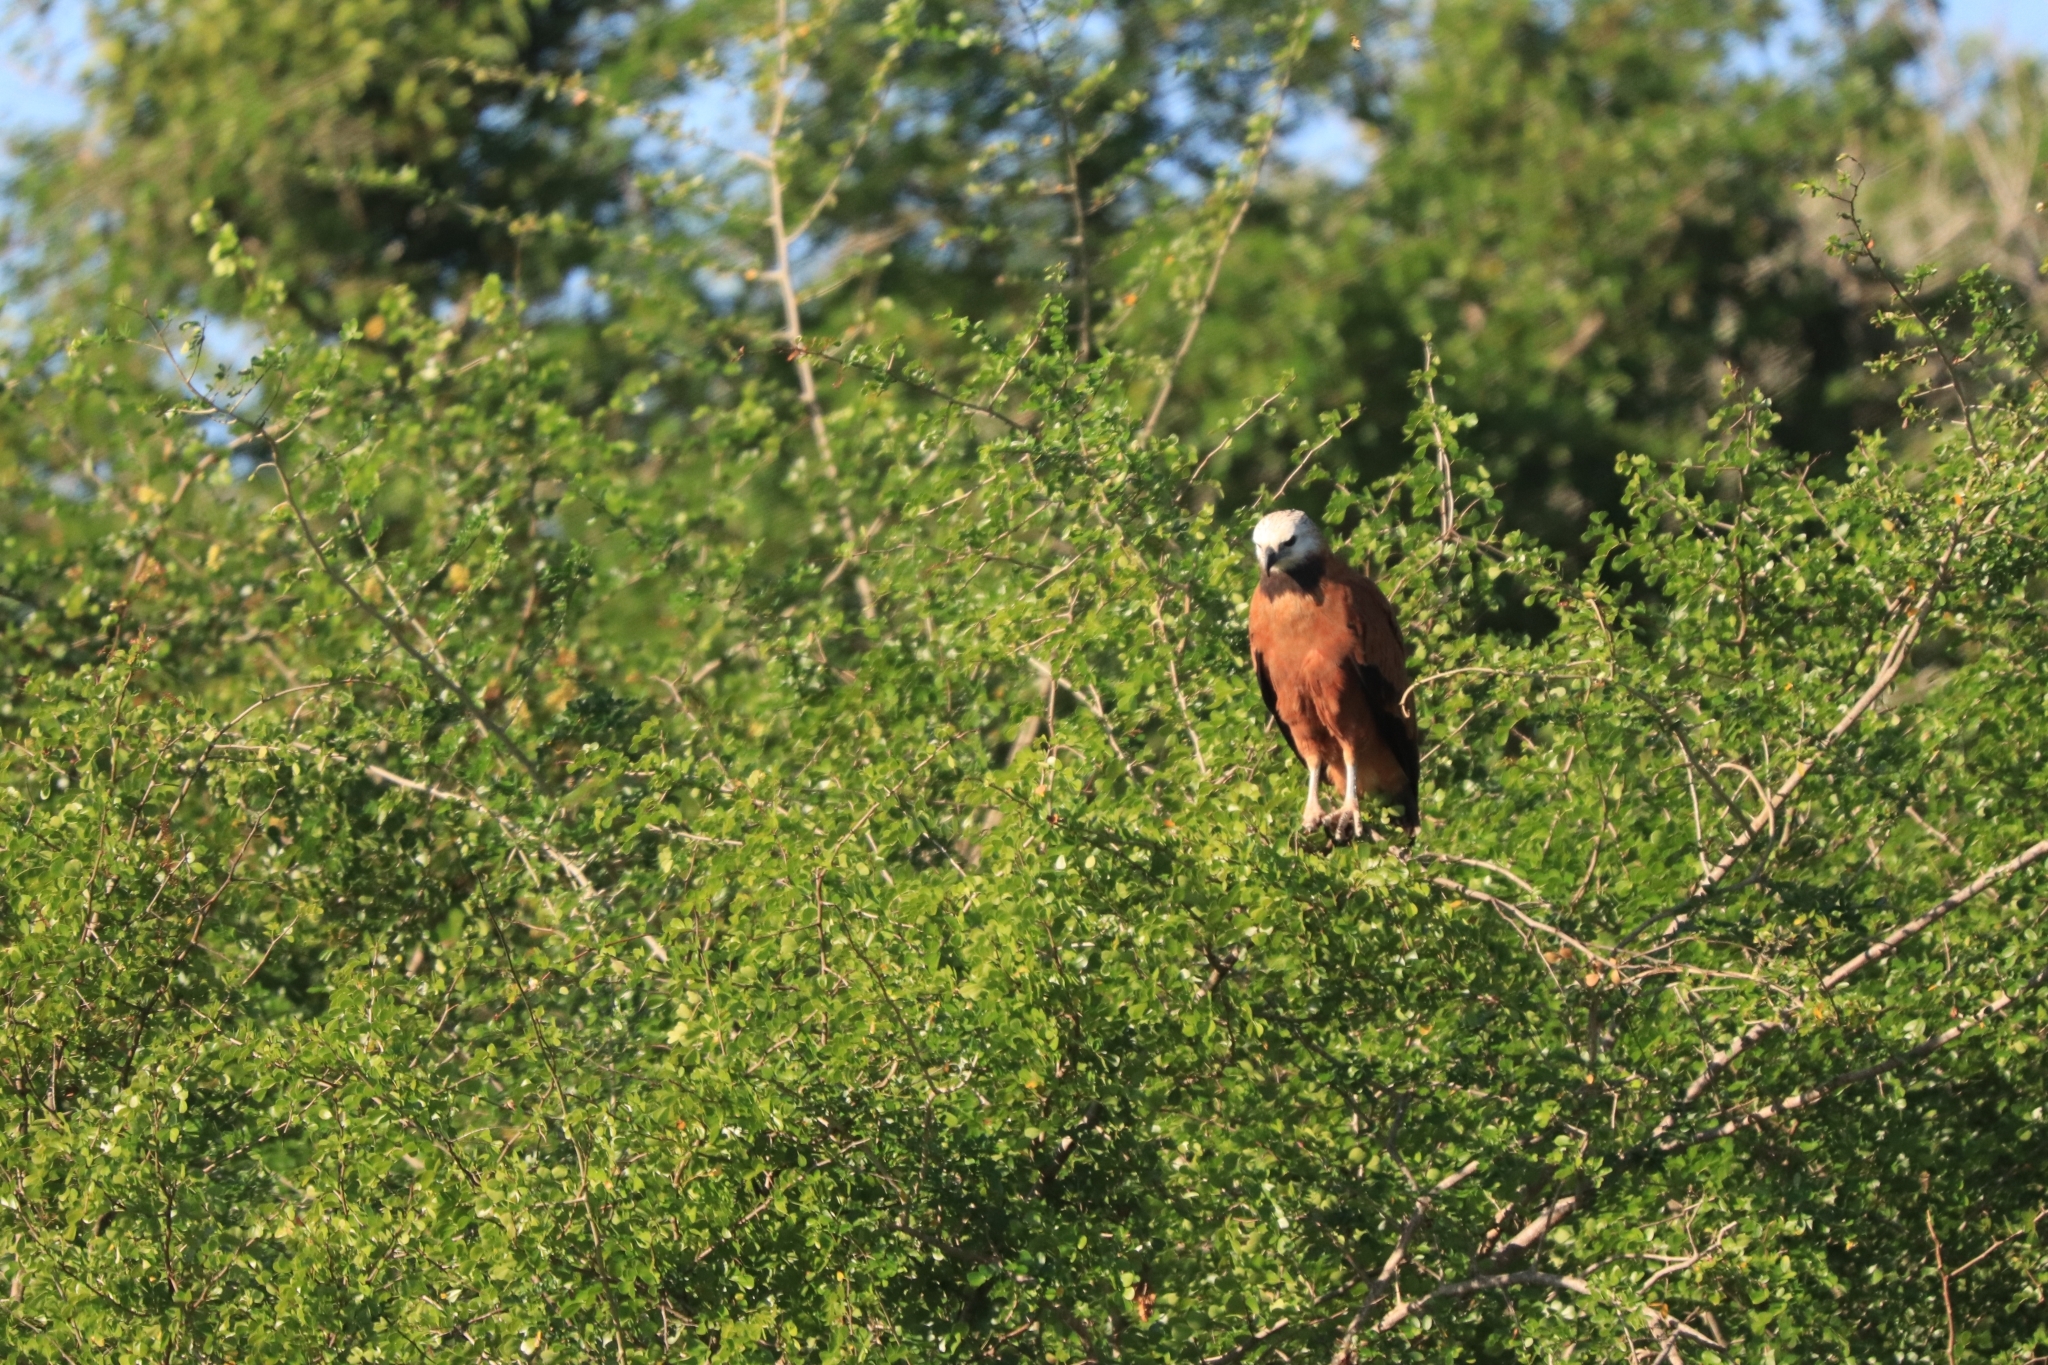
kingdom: Animalia
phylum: Chordata
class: Aves
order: Accipitriformes
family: Accipitridae
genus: Busarellus
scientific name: Busarellus nigricollis
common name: Black-collared hawk
